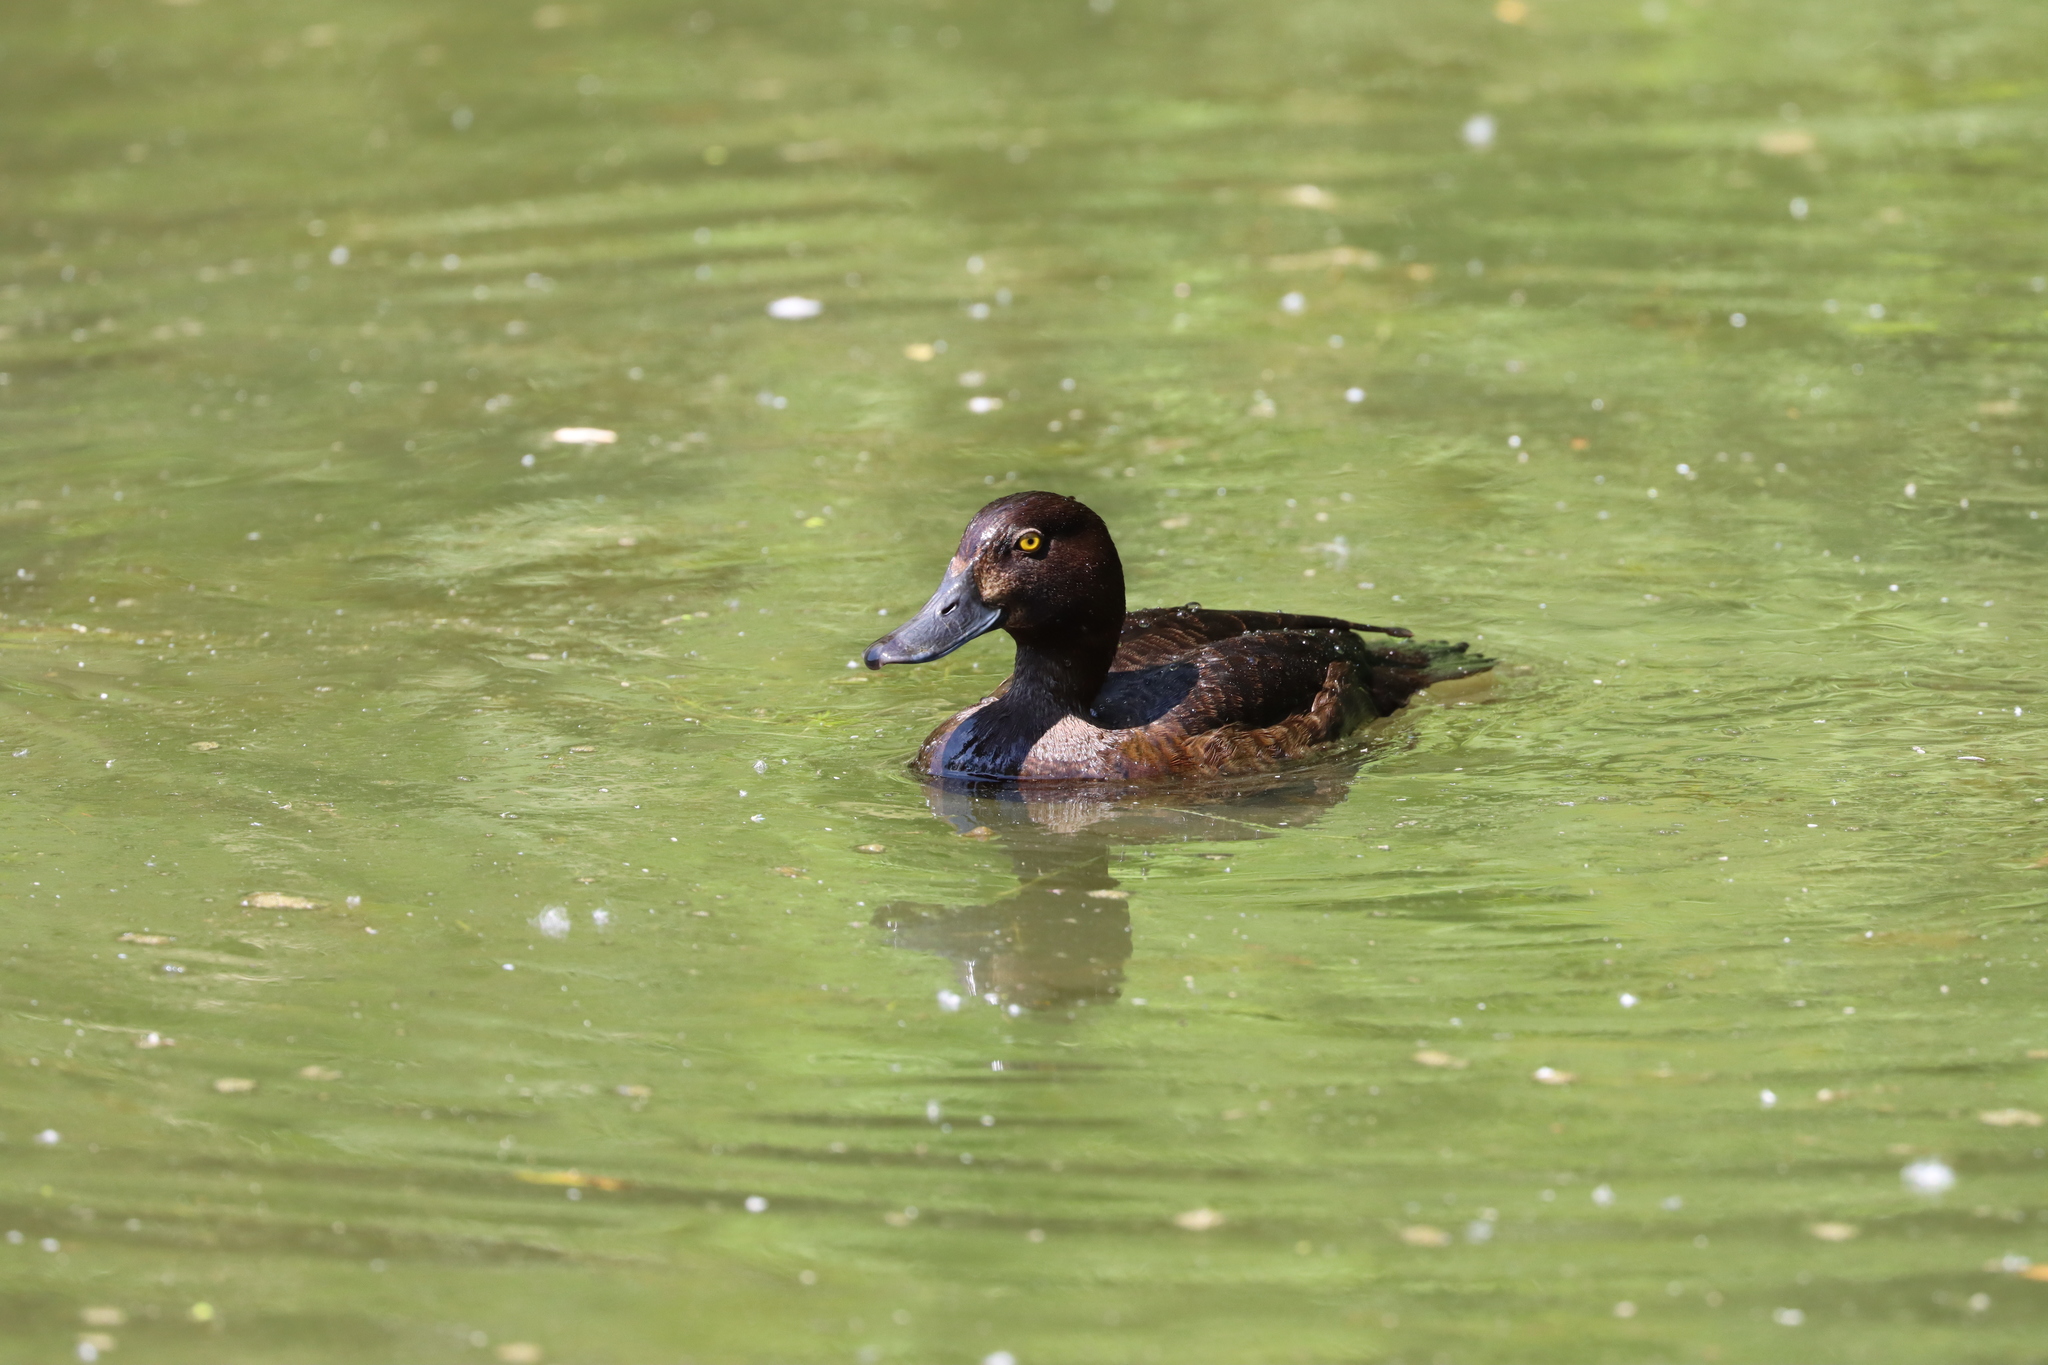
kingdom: Animalia
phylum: Chordata
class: Aves
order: Anseriformes
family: Anatidae
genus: Aythya
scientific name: Aythya fuligula
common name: Tufted duck
